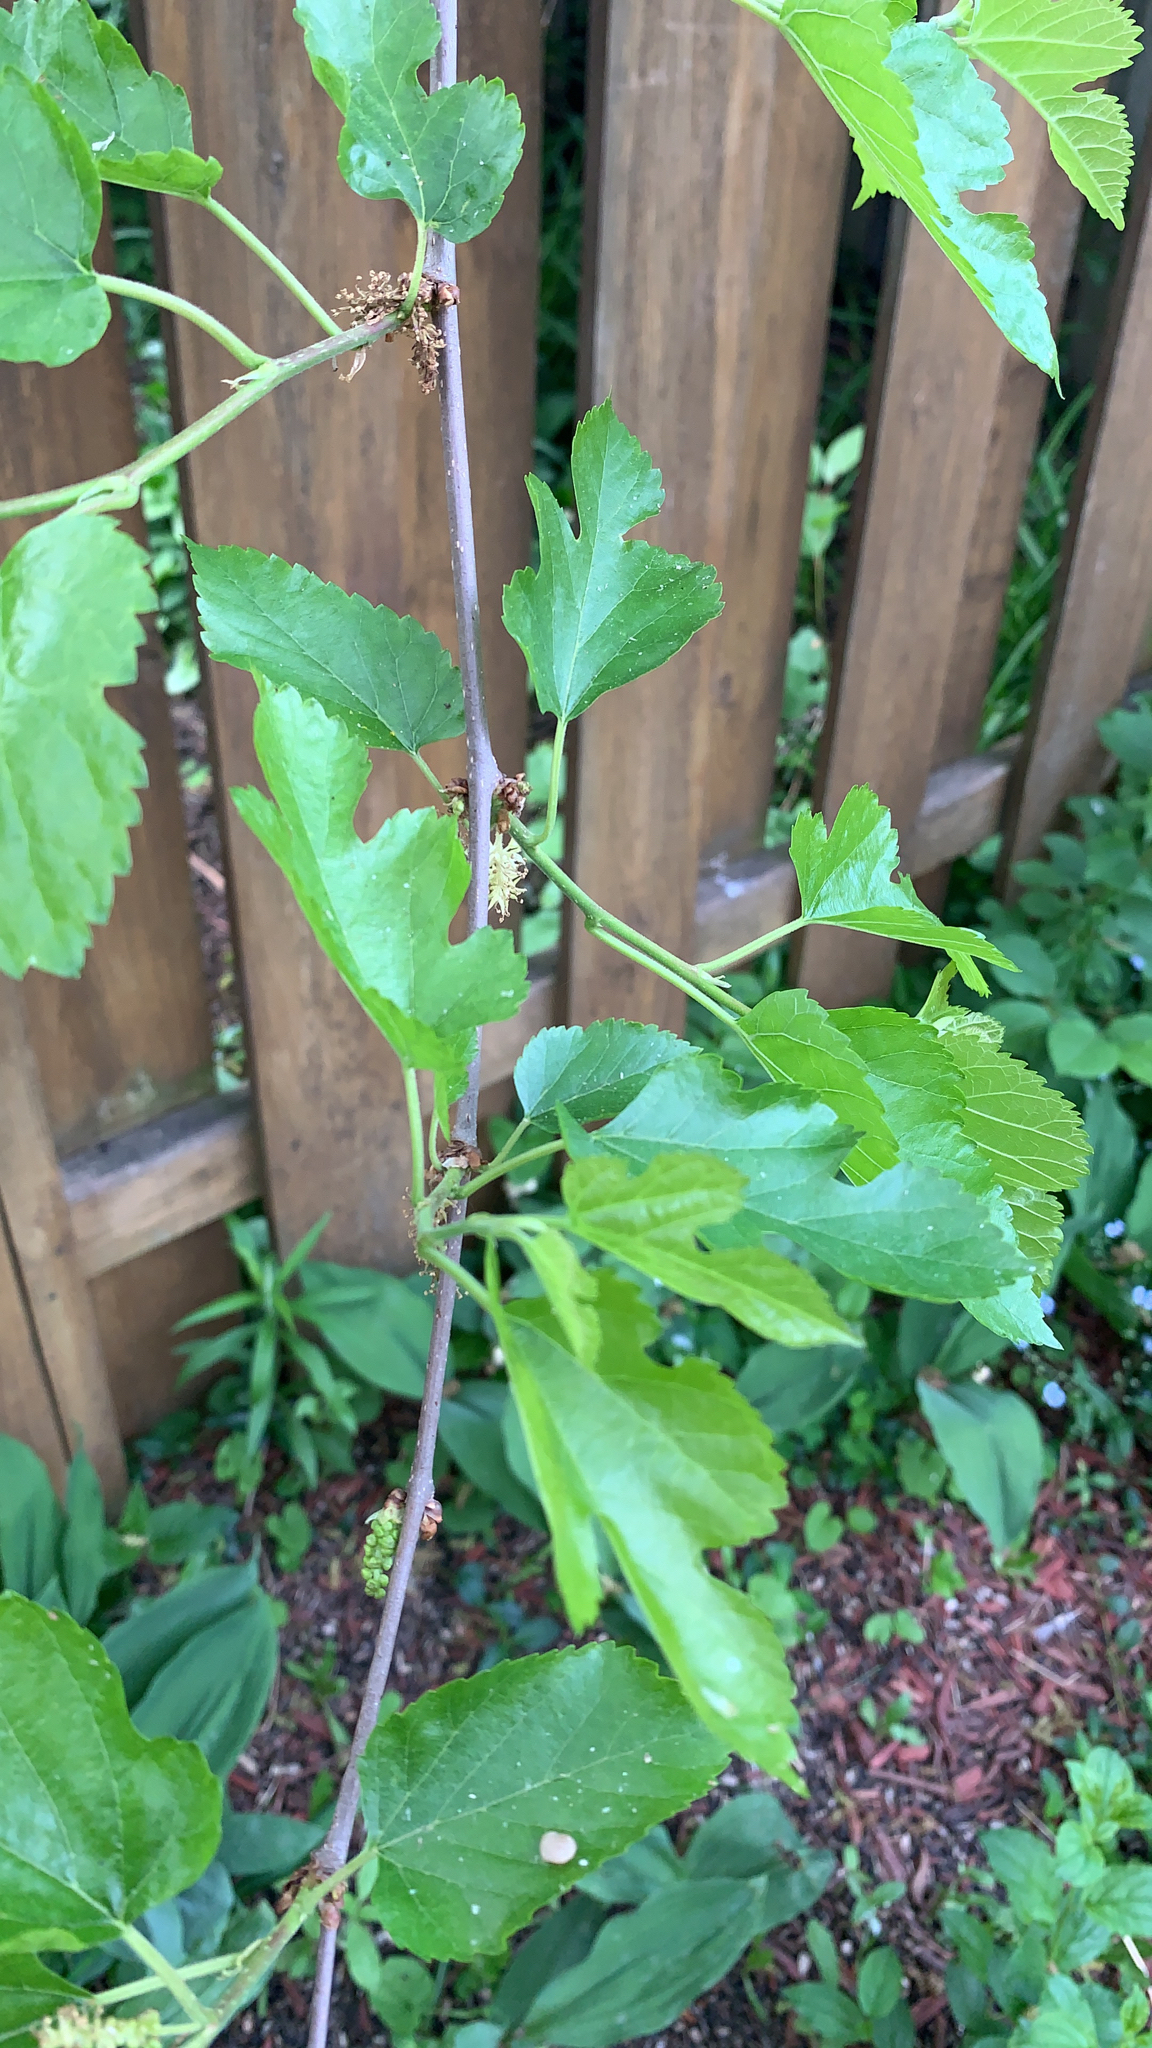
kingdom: Plantae
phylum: Tracheophyta
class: Magnoliopsida
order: Rosales
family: Moraceae
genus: Morus
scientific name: Morus alba
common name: White mulberry
